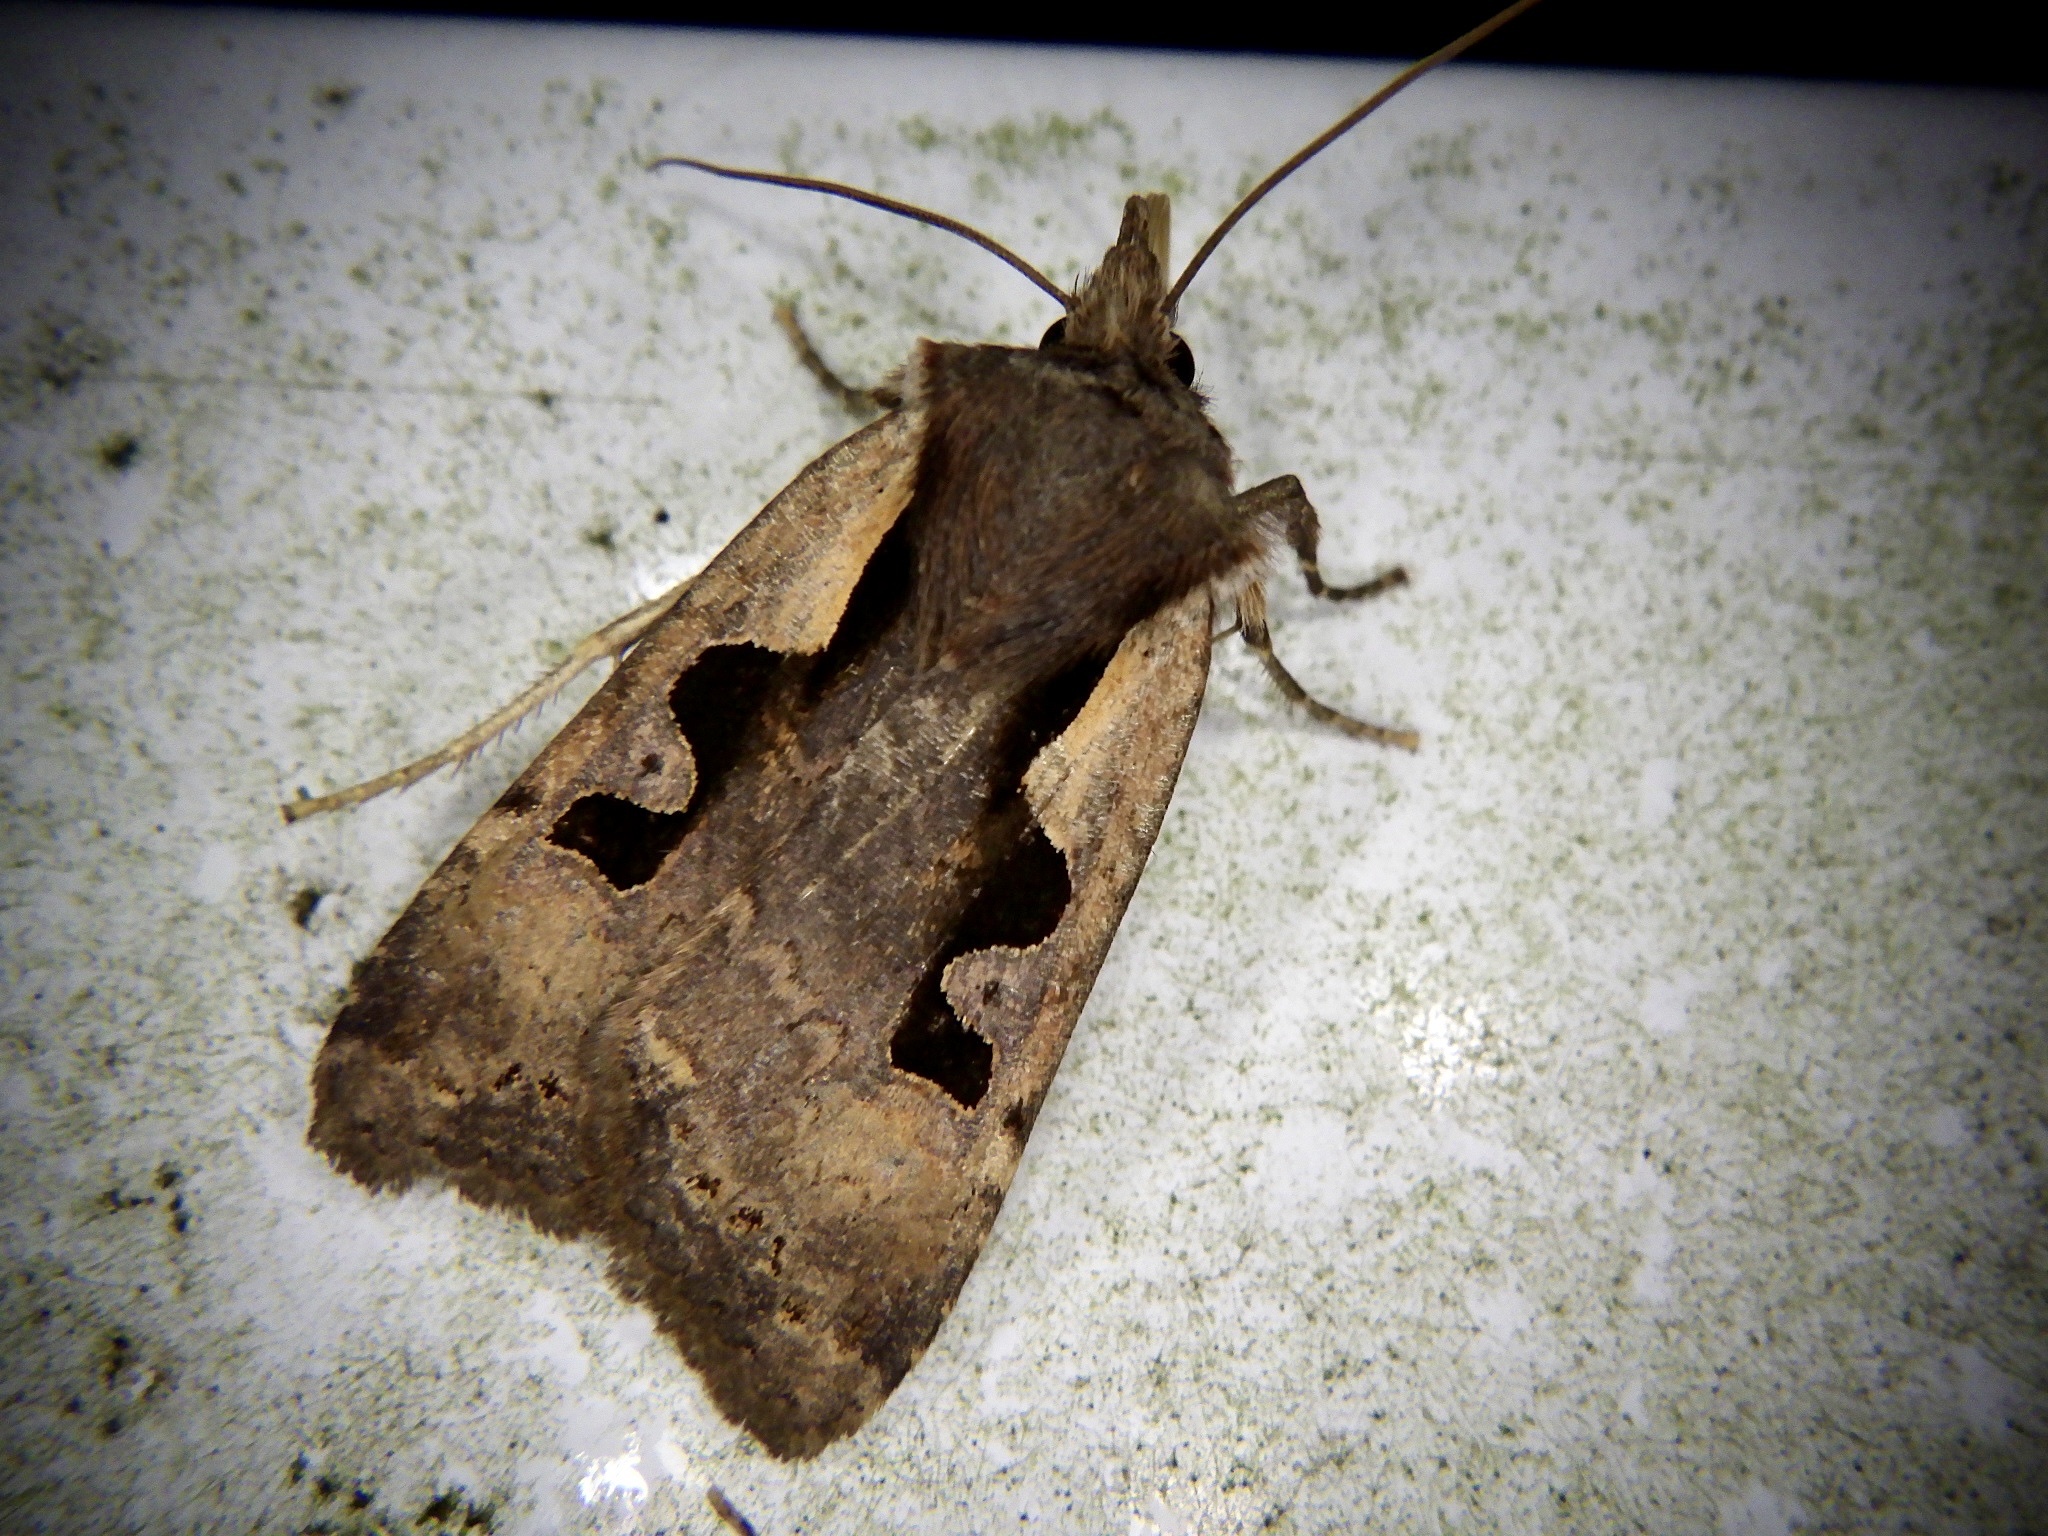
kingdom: Animalia
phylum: Arthropoda
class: Insecta
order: Lepidoptera
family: Noctuidae
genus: Sugitania
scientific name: Sugitania lepida
